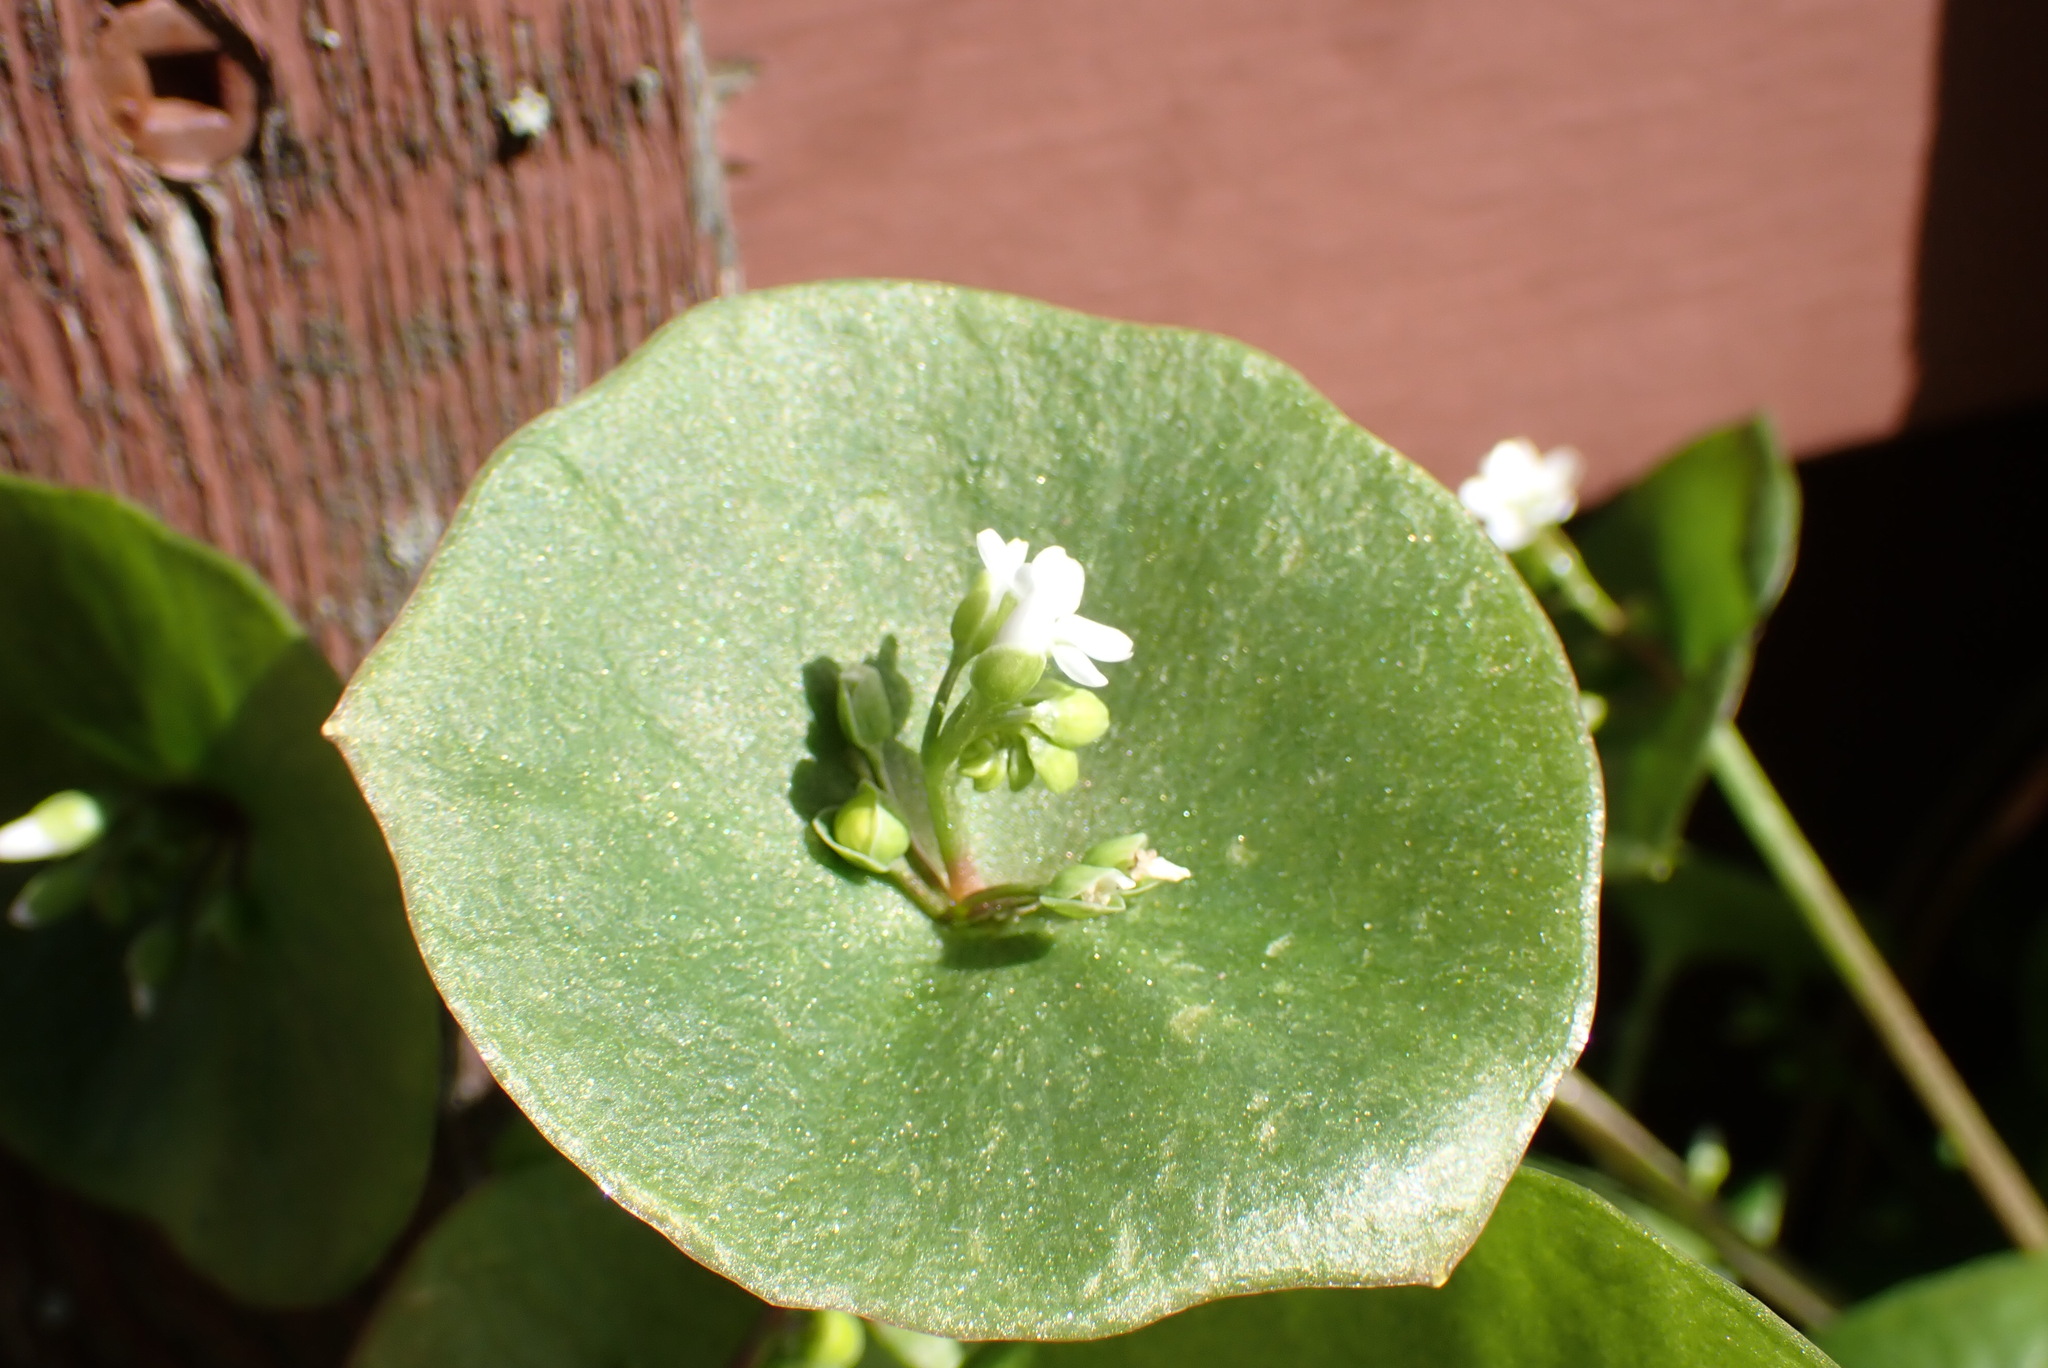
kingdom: Plantae
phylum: Tracheophyta
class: Magnoliopsida
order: Caryophyllales
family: Montiaceae
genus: Claytonia
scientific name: Claytonia perfoliata
